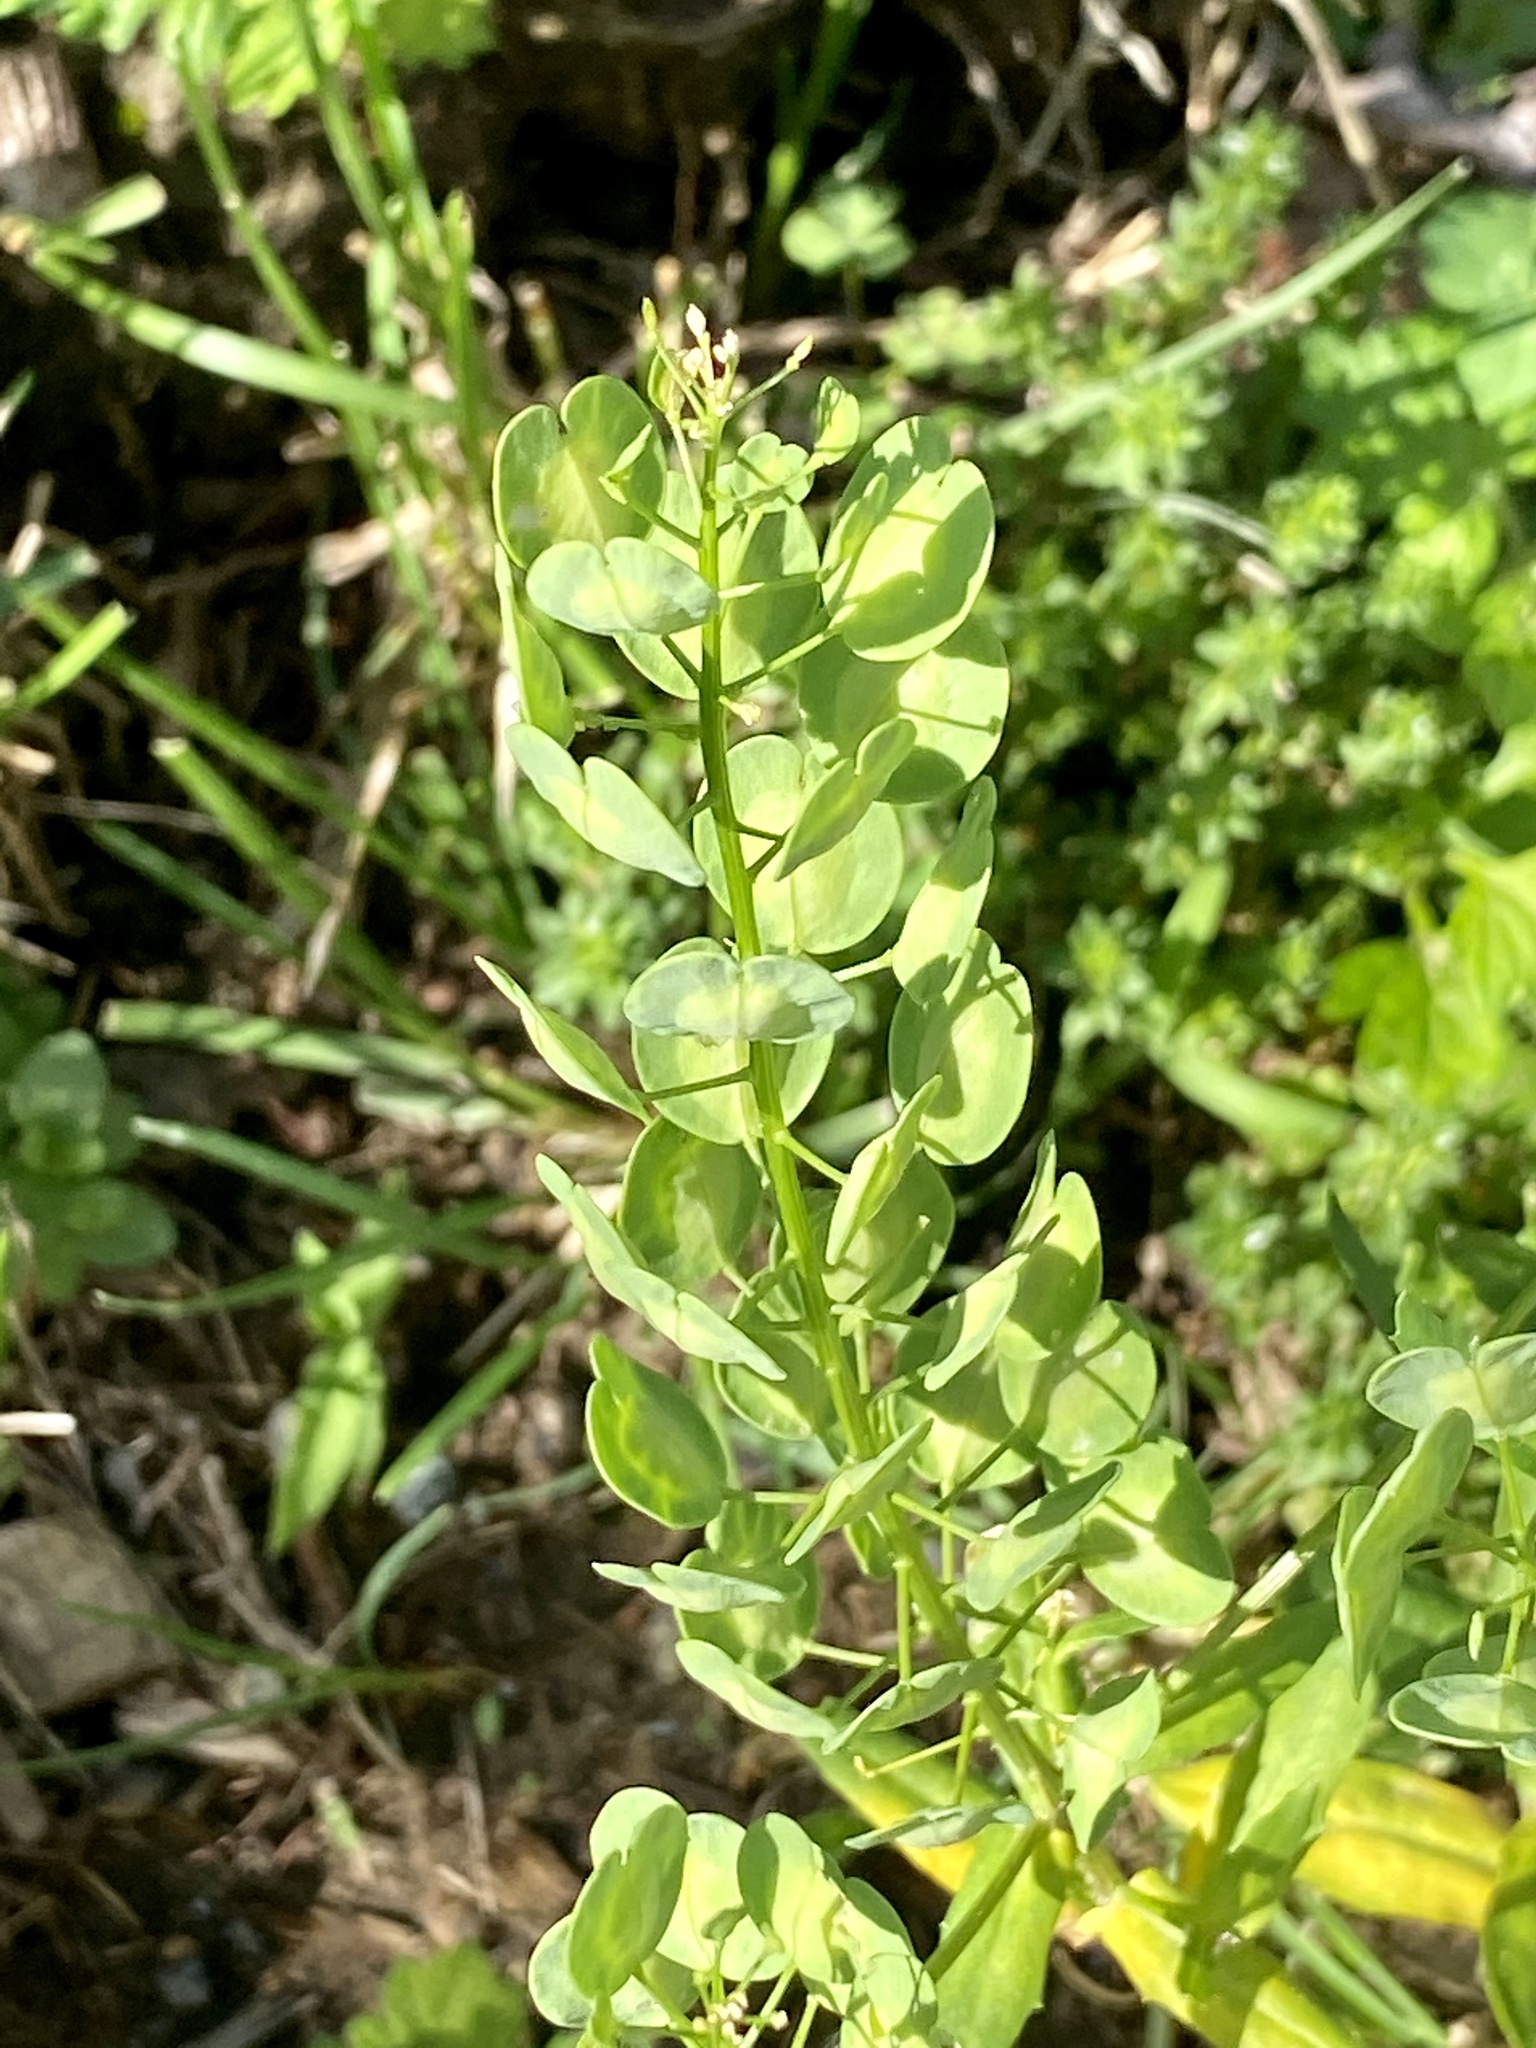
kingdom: Plantae
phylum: Tracheophyta
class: Magnoliopsida
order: Brassicales
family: Brassicaceae
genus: Thlaspi
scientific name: Thlaspi arvense
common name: Field pennycress
